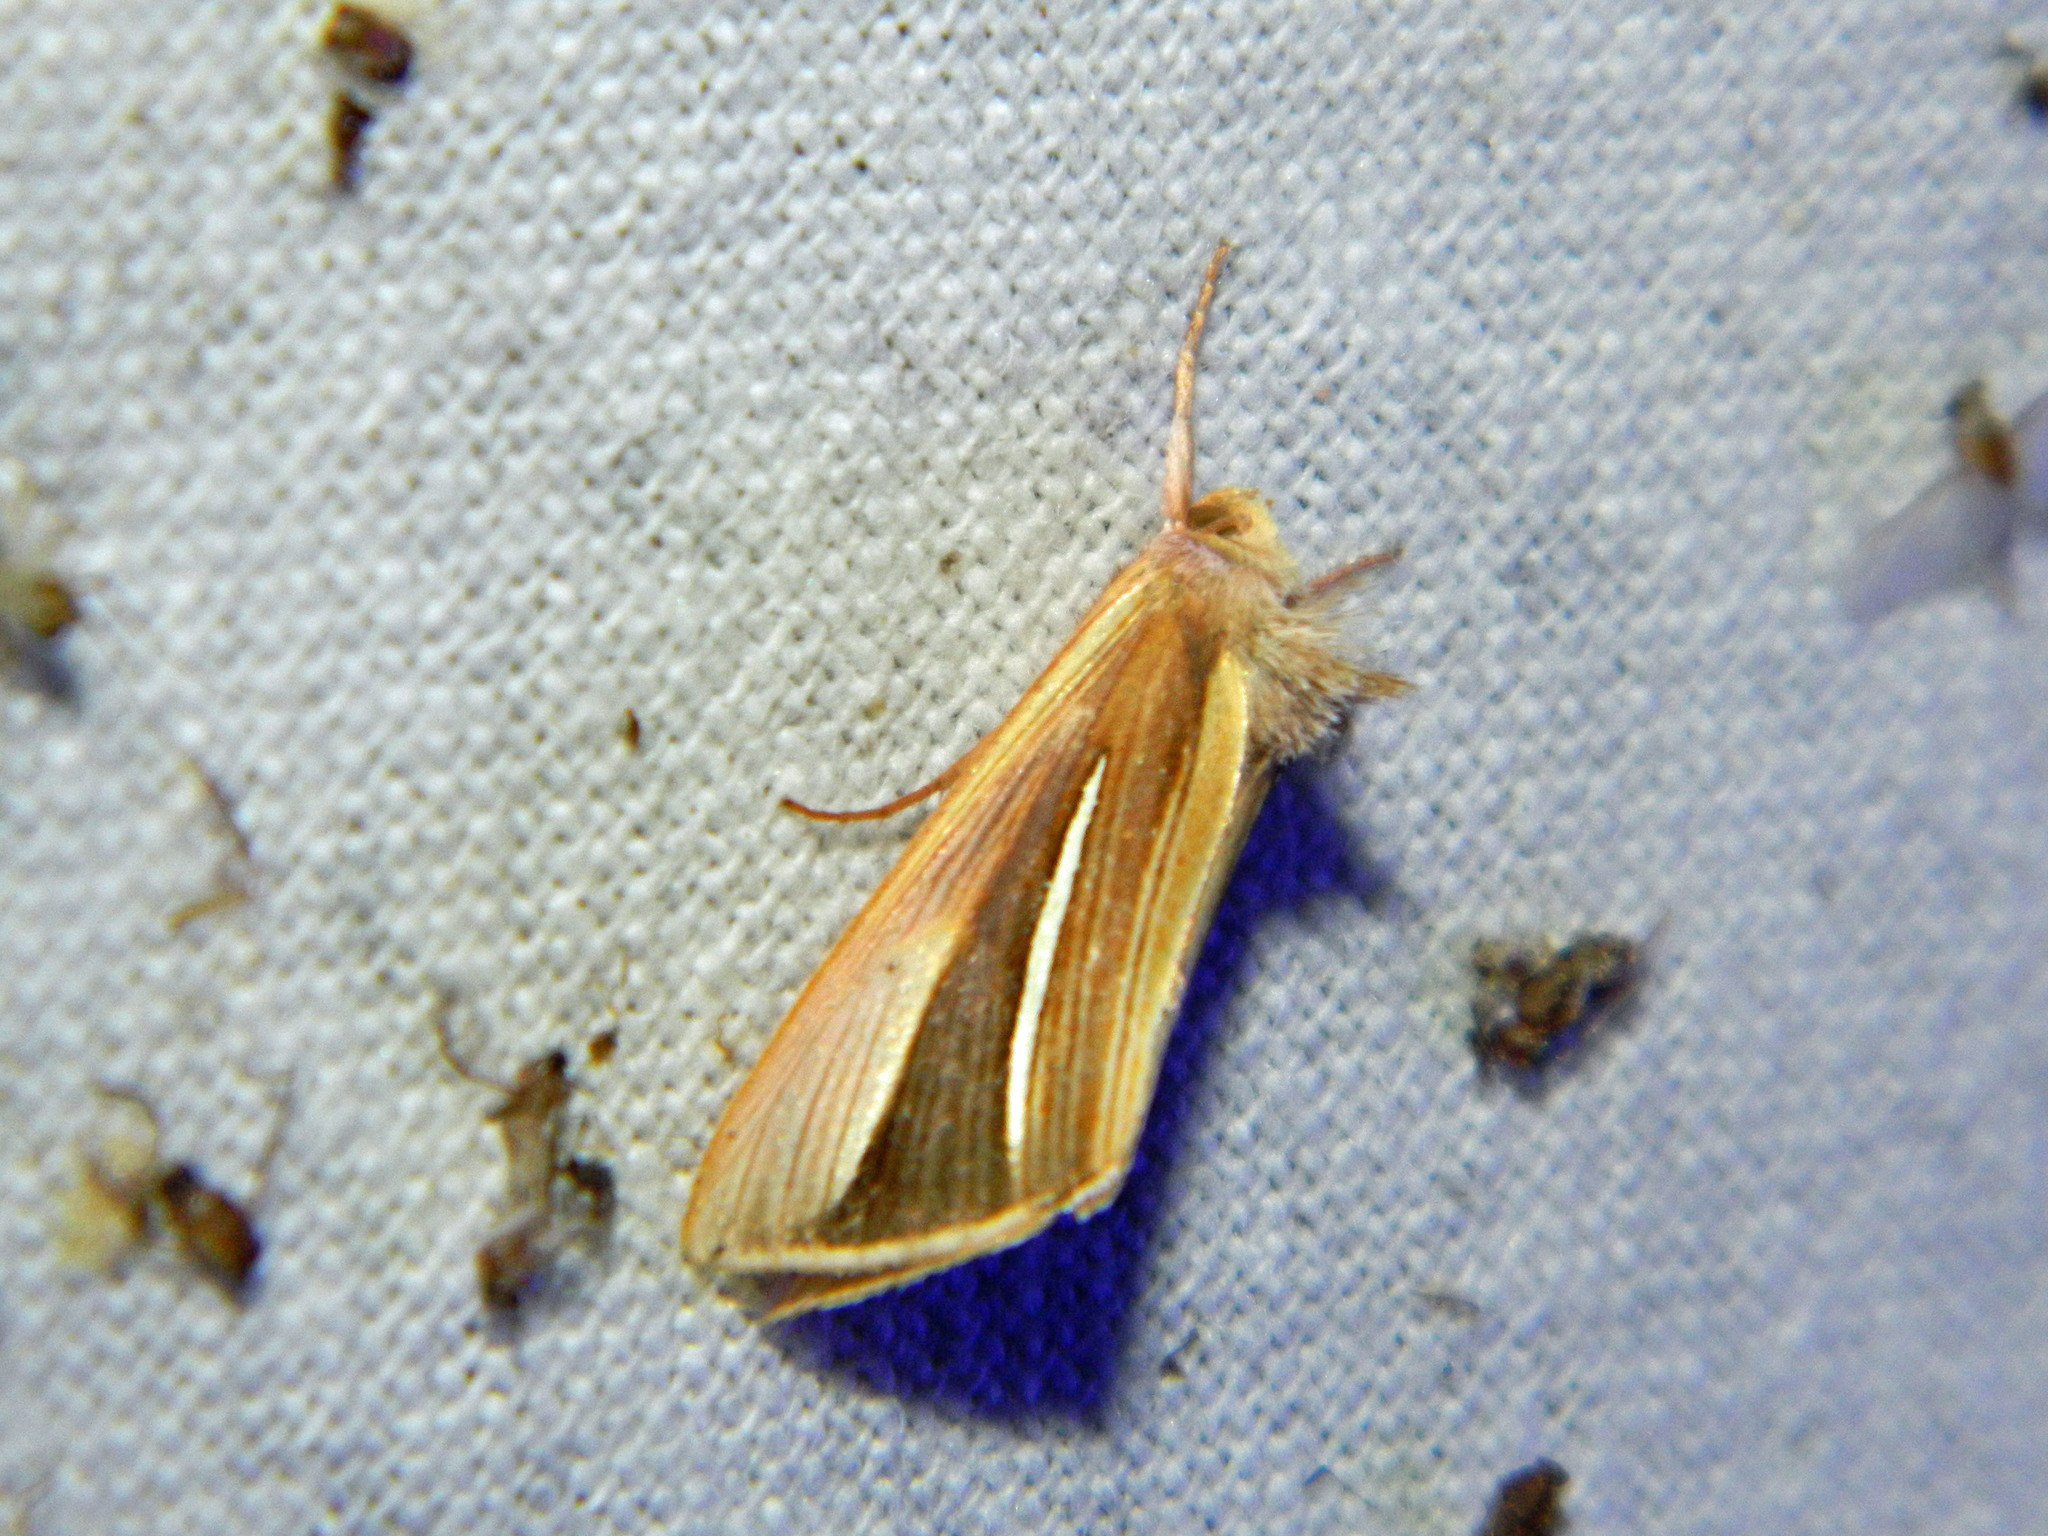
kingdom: Animalia
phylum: Arthropoda
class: Insecta
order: Lepidoptera
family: Noctuidae
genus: Plusia
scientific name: Plusia venusta
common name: White-streaked looper moth
